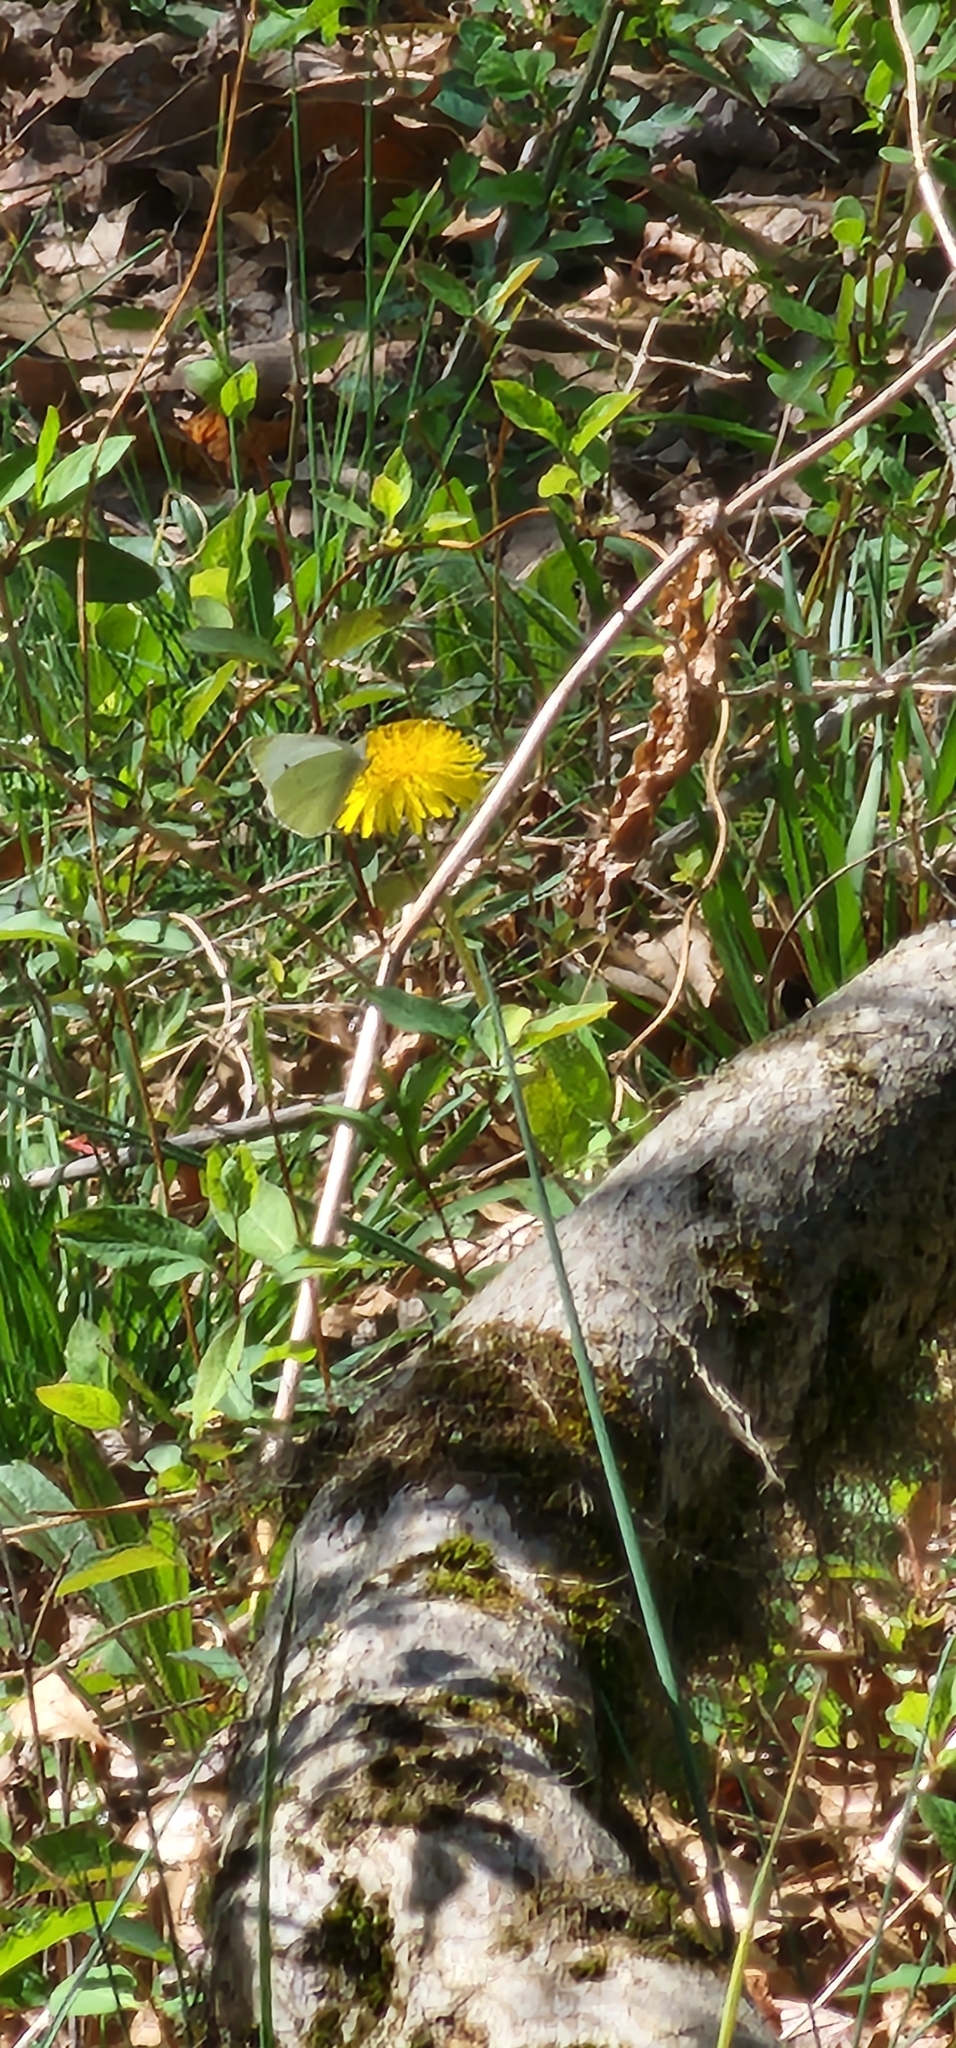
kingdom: Animalia
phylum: Arthropoda
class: Insecta
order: Lepidoptera
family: Pieridae
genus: Pieris
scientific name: Pieris rapae
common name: Small white
